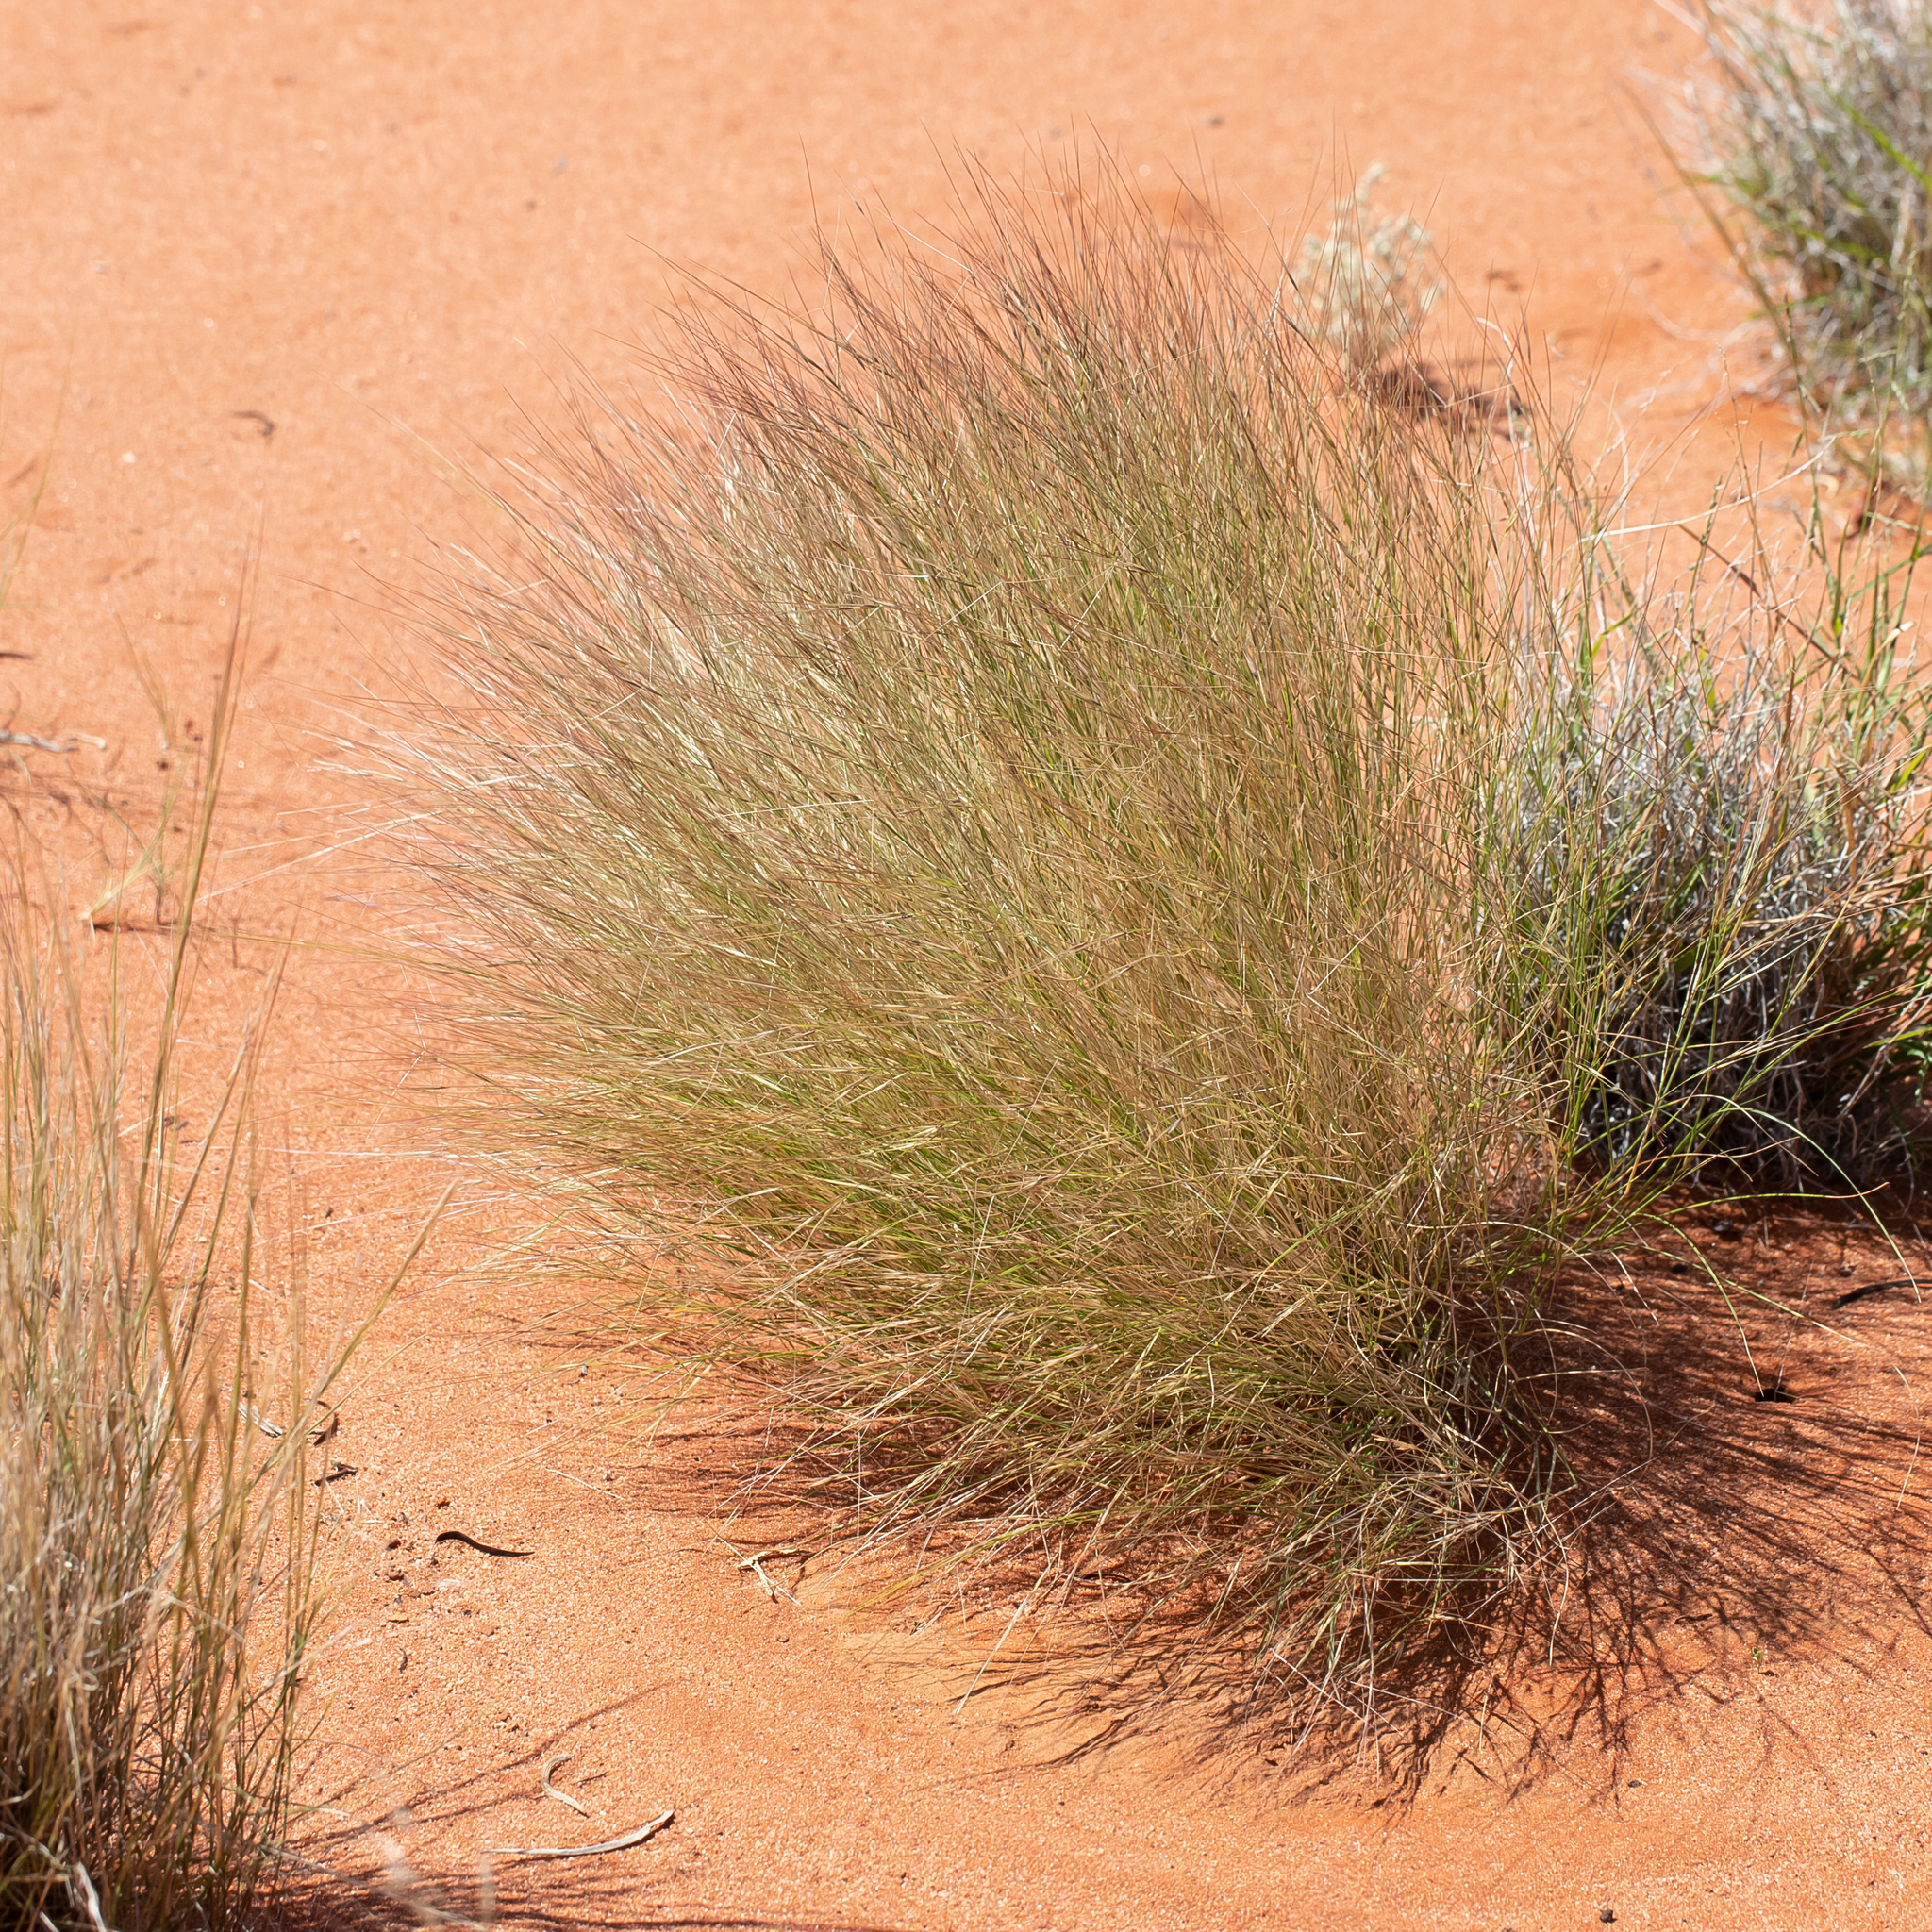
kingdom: Plantae
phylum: Tracheophyta
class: Liliopsida
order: Poales
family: Poaceae
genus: Aristida
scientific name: Aristida contorta
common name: Bunch kerosene grass
